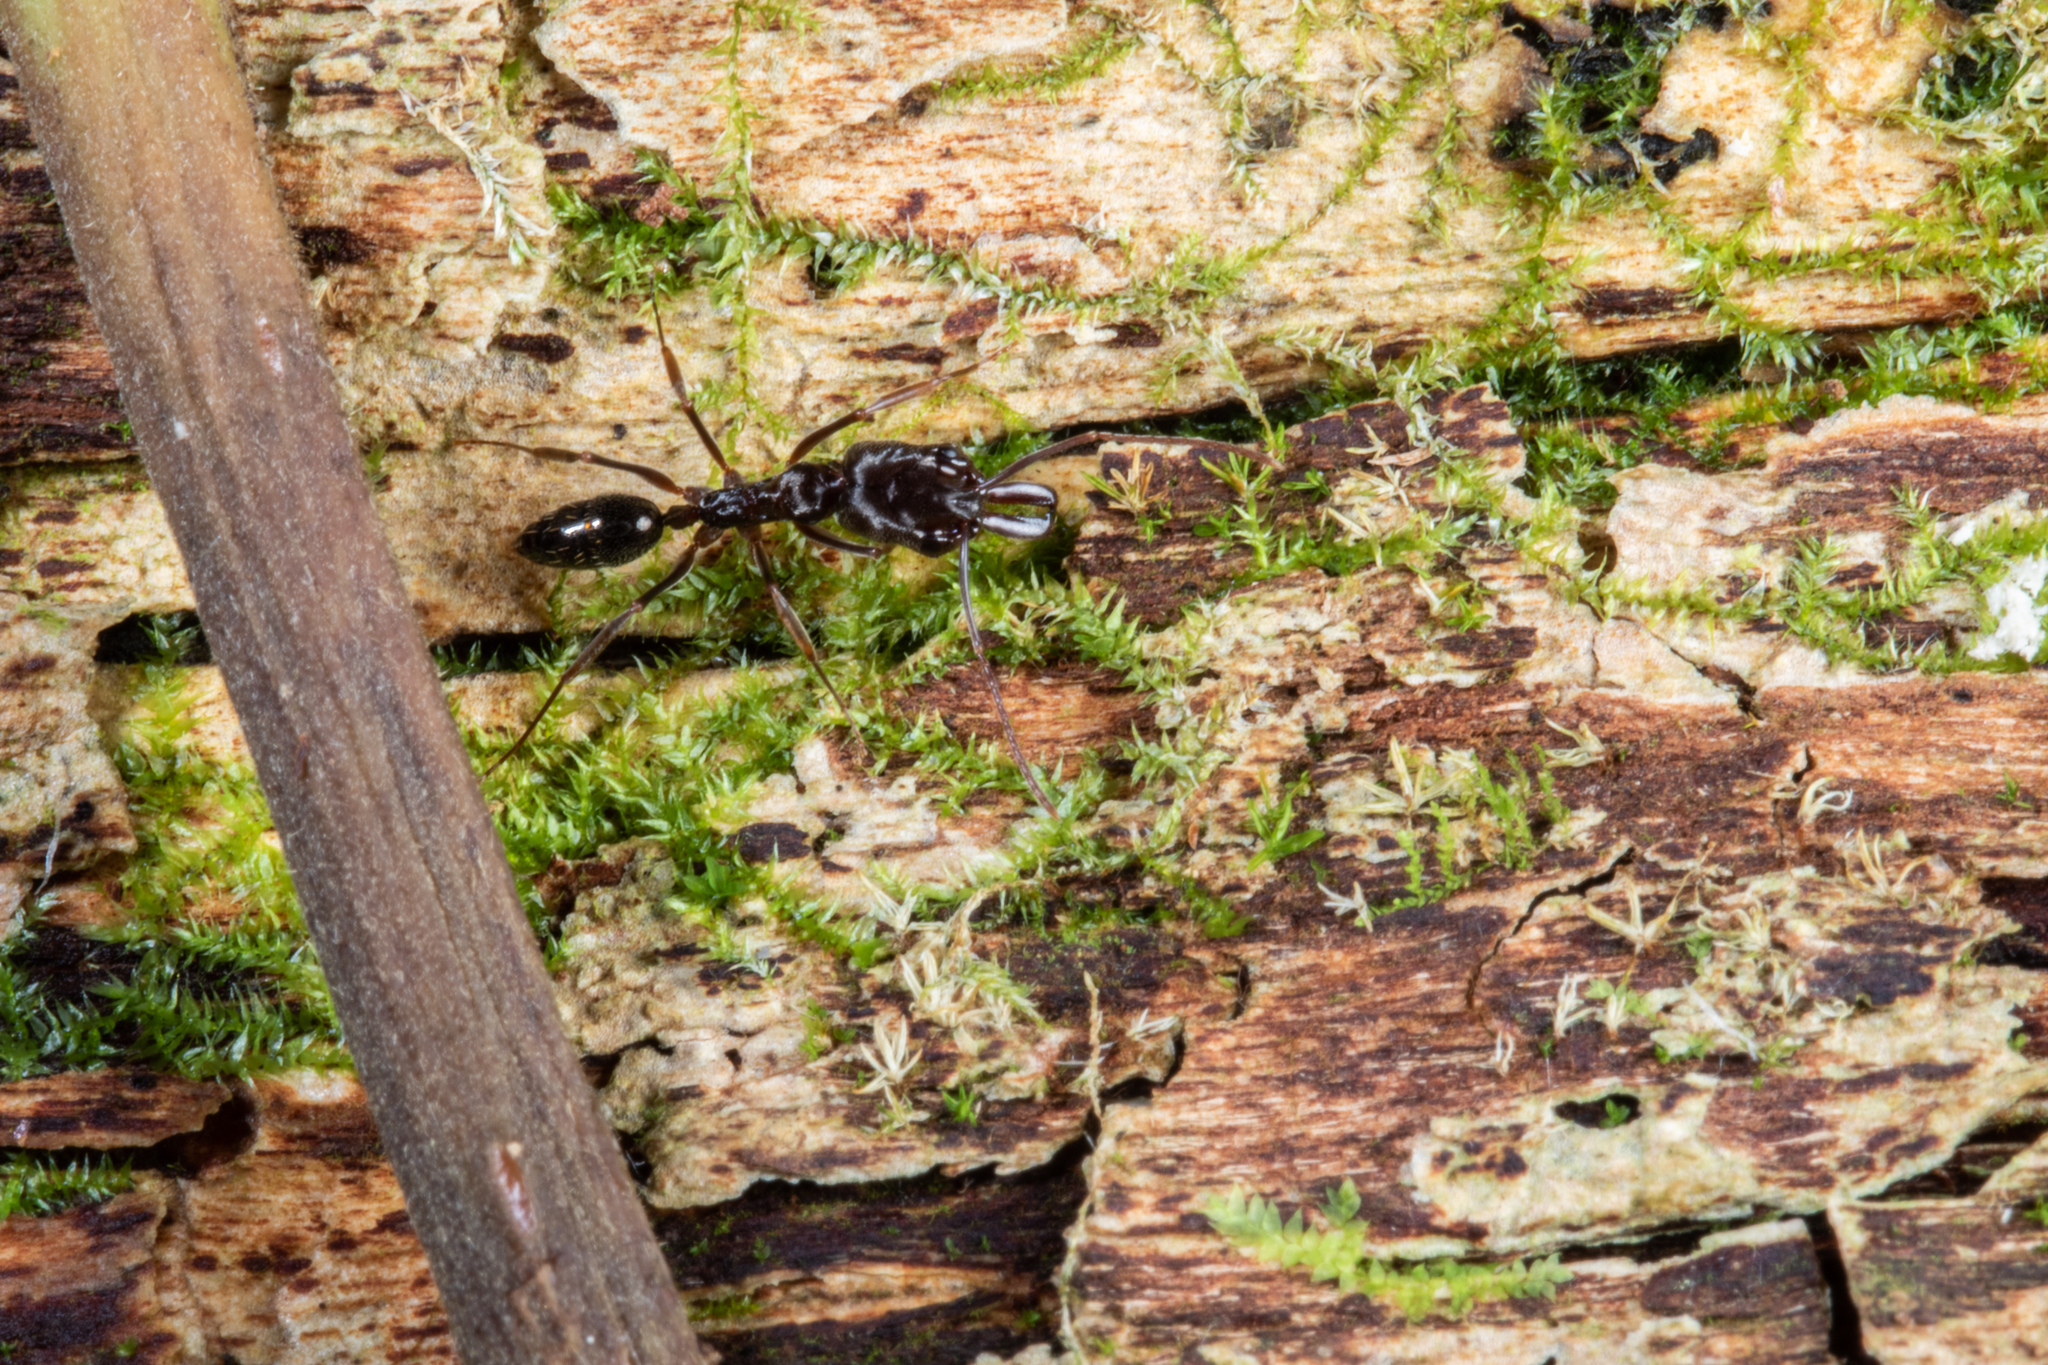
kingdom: Animalia
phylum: Arthropoda
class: Insecta
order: Hymenoptera
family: Formicidae
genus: Odontomachus
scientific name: Odontomachus simillimus
